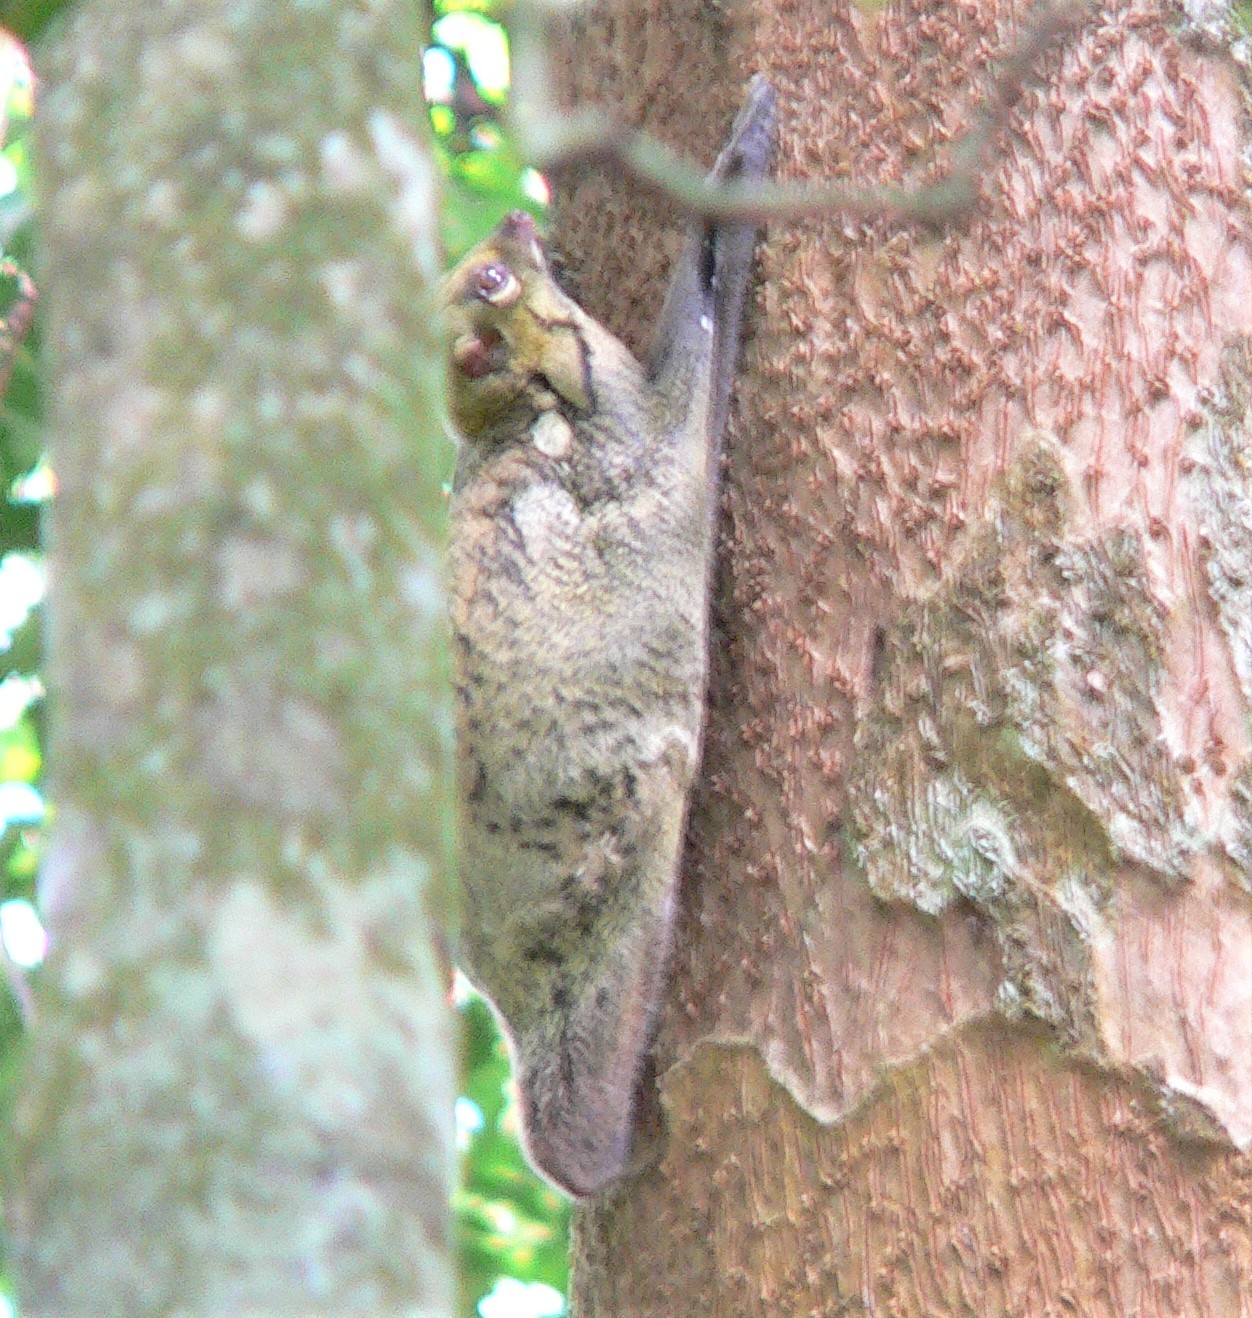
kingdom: Animalia
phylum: Chordata
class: Mammalia
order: Dermoptera
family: Cynocephalidae
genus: Galeopterus
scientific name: Galeopterus variegatus
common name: Sunda flying lemur
